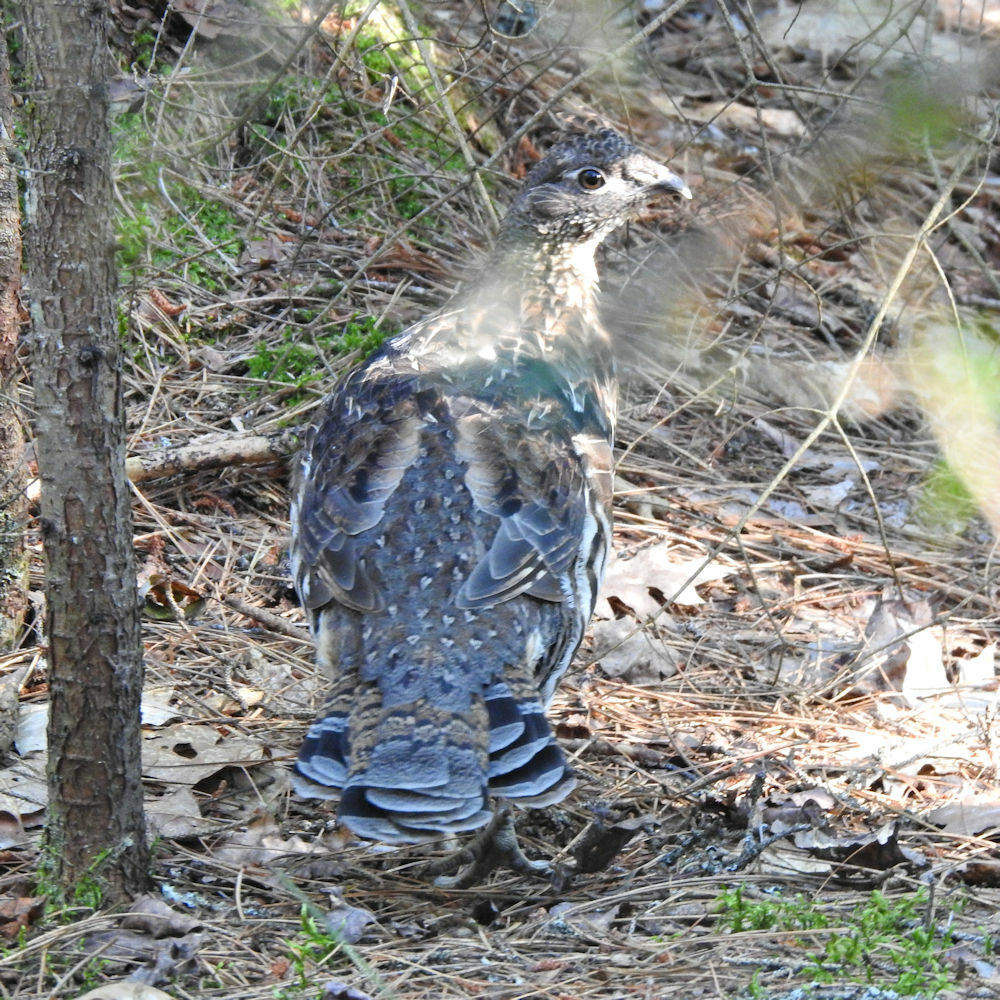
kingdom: Animalia
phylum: Chordata
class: Aves
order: Galliformes
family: Phasianidae
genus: Bonasa
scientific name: Bonasa umbellus
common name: Ruffed grouse
